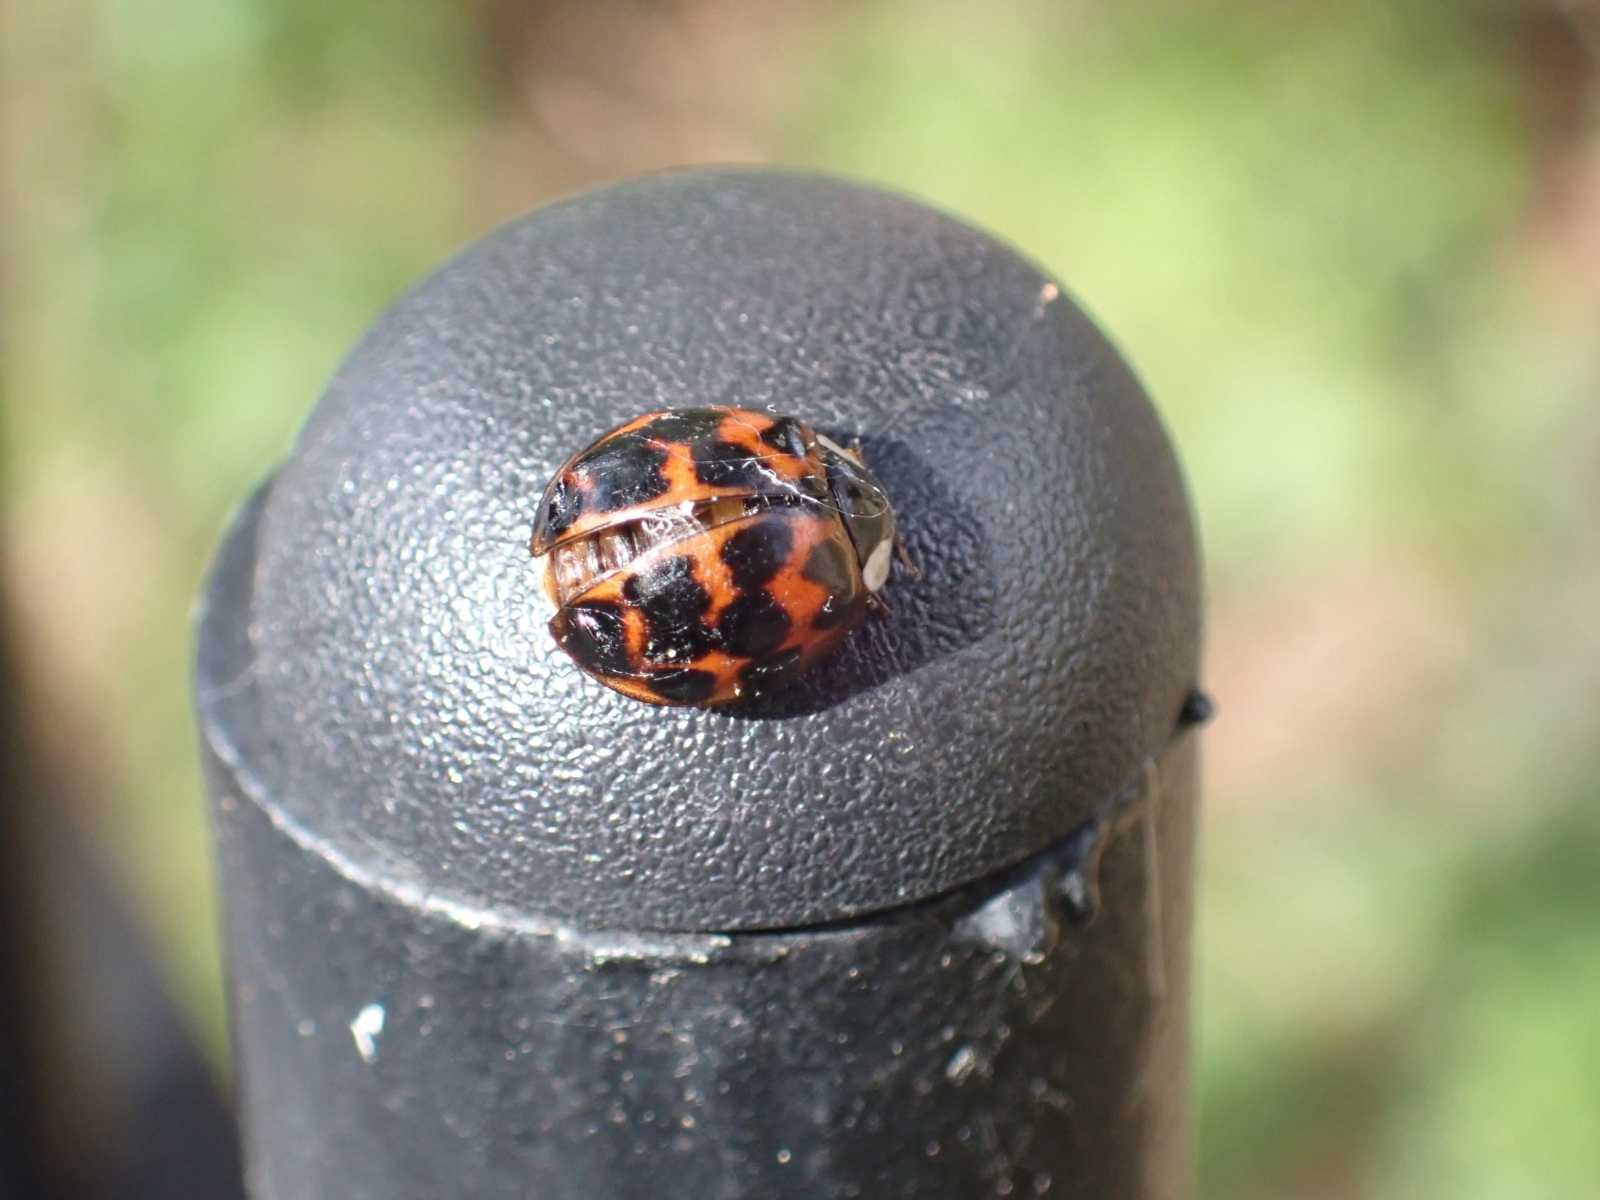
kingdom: Animalia
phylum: Arthropoda
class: Insecta
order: Coleoptera
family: Coccinellidae
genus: Harmonia
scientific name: Harmonia axyridis
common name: Harlequin ladybird
